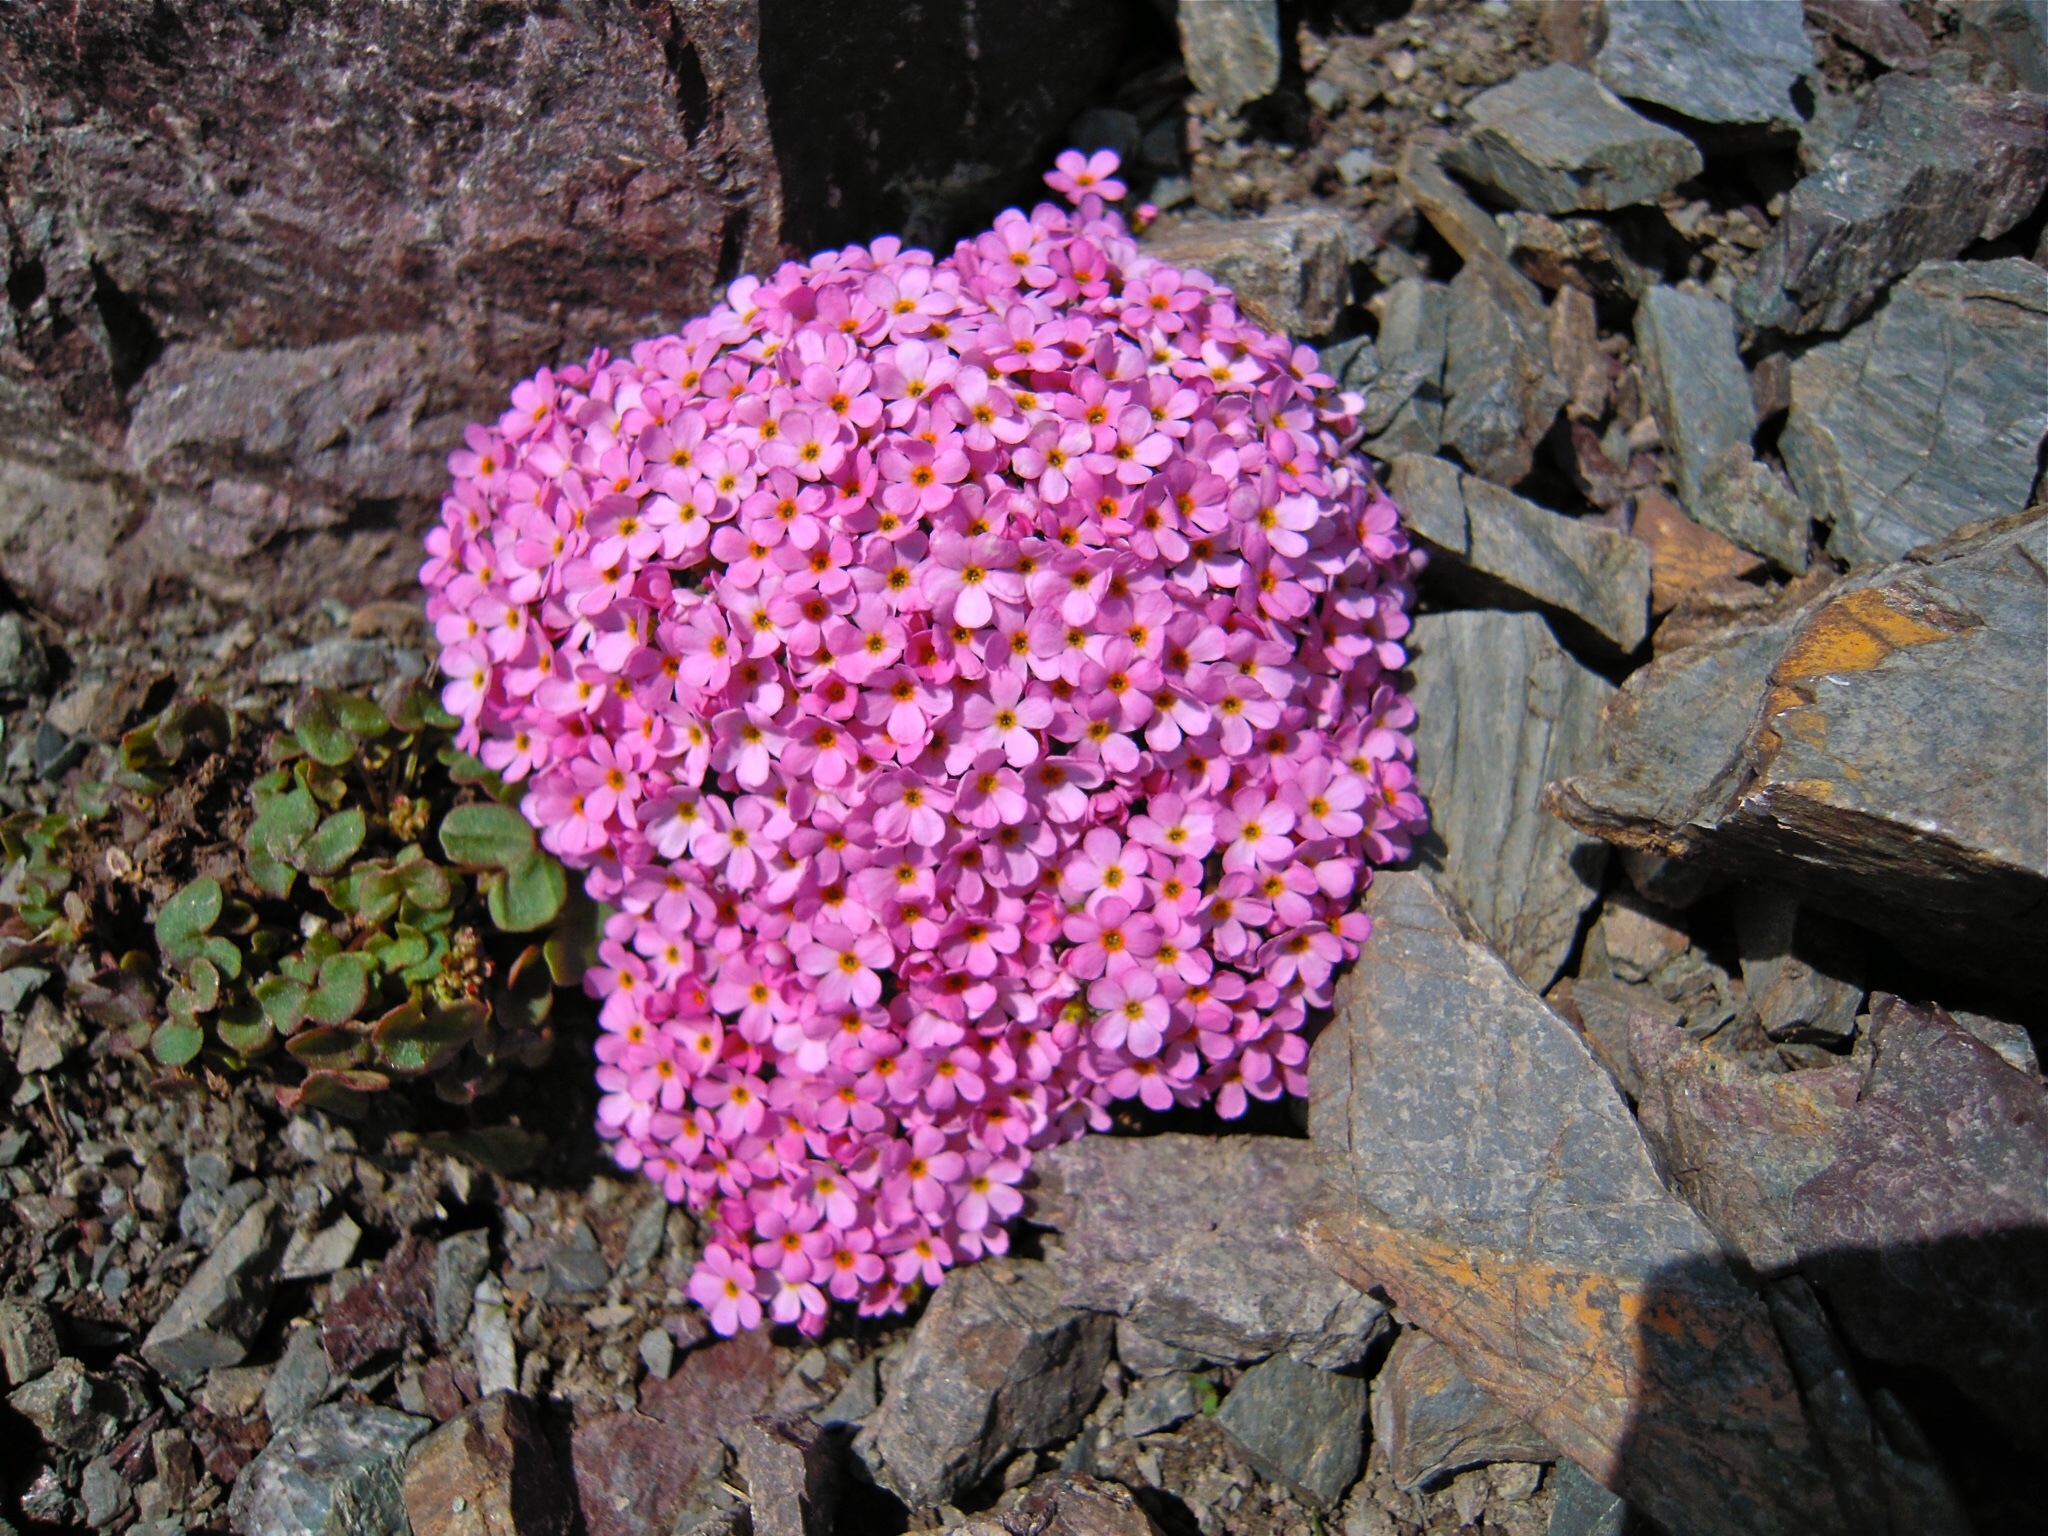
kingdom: Plantae
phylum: Tracheophyta
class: Magnoliopsida
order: Ericales
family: Primulaceae
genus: Androsace
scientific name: Androsace alpina
